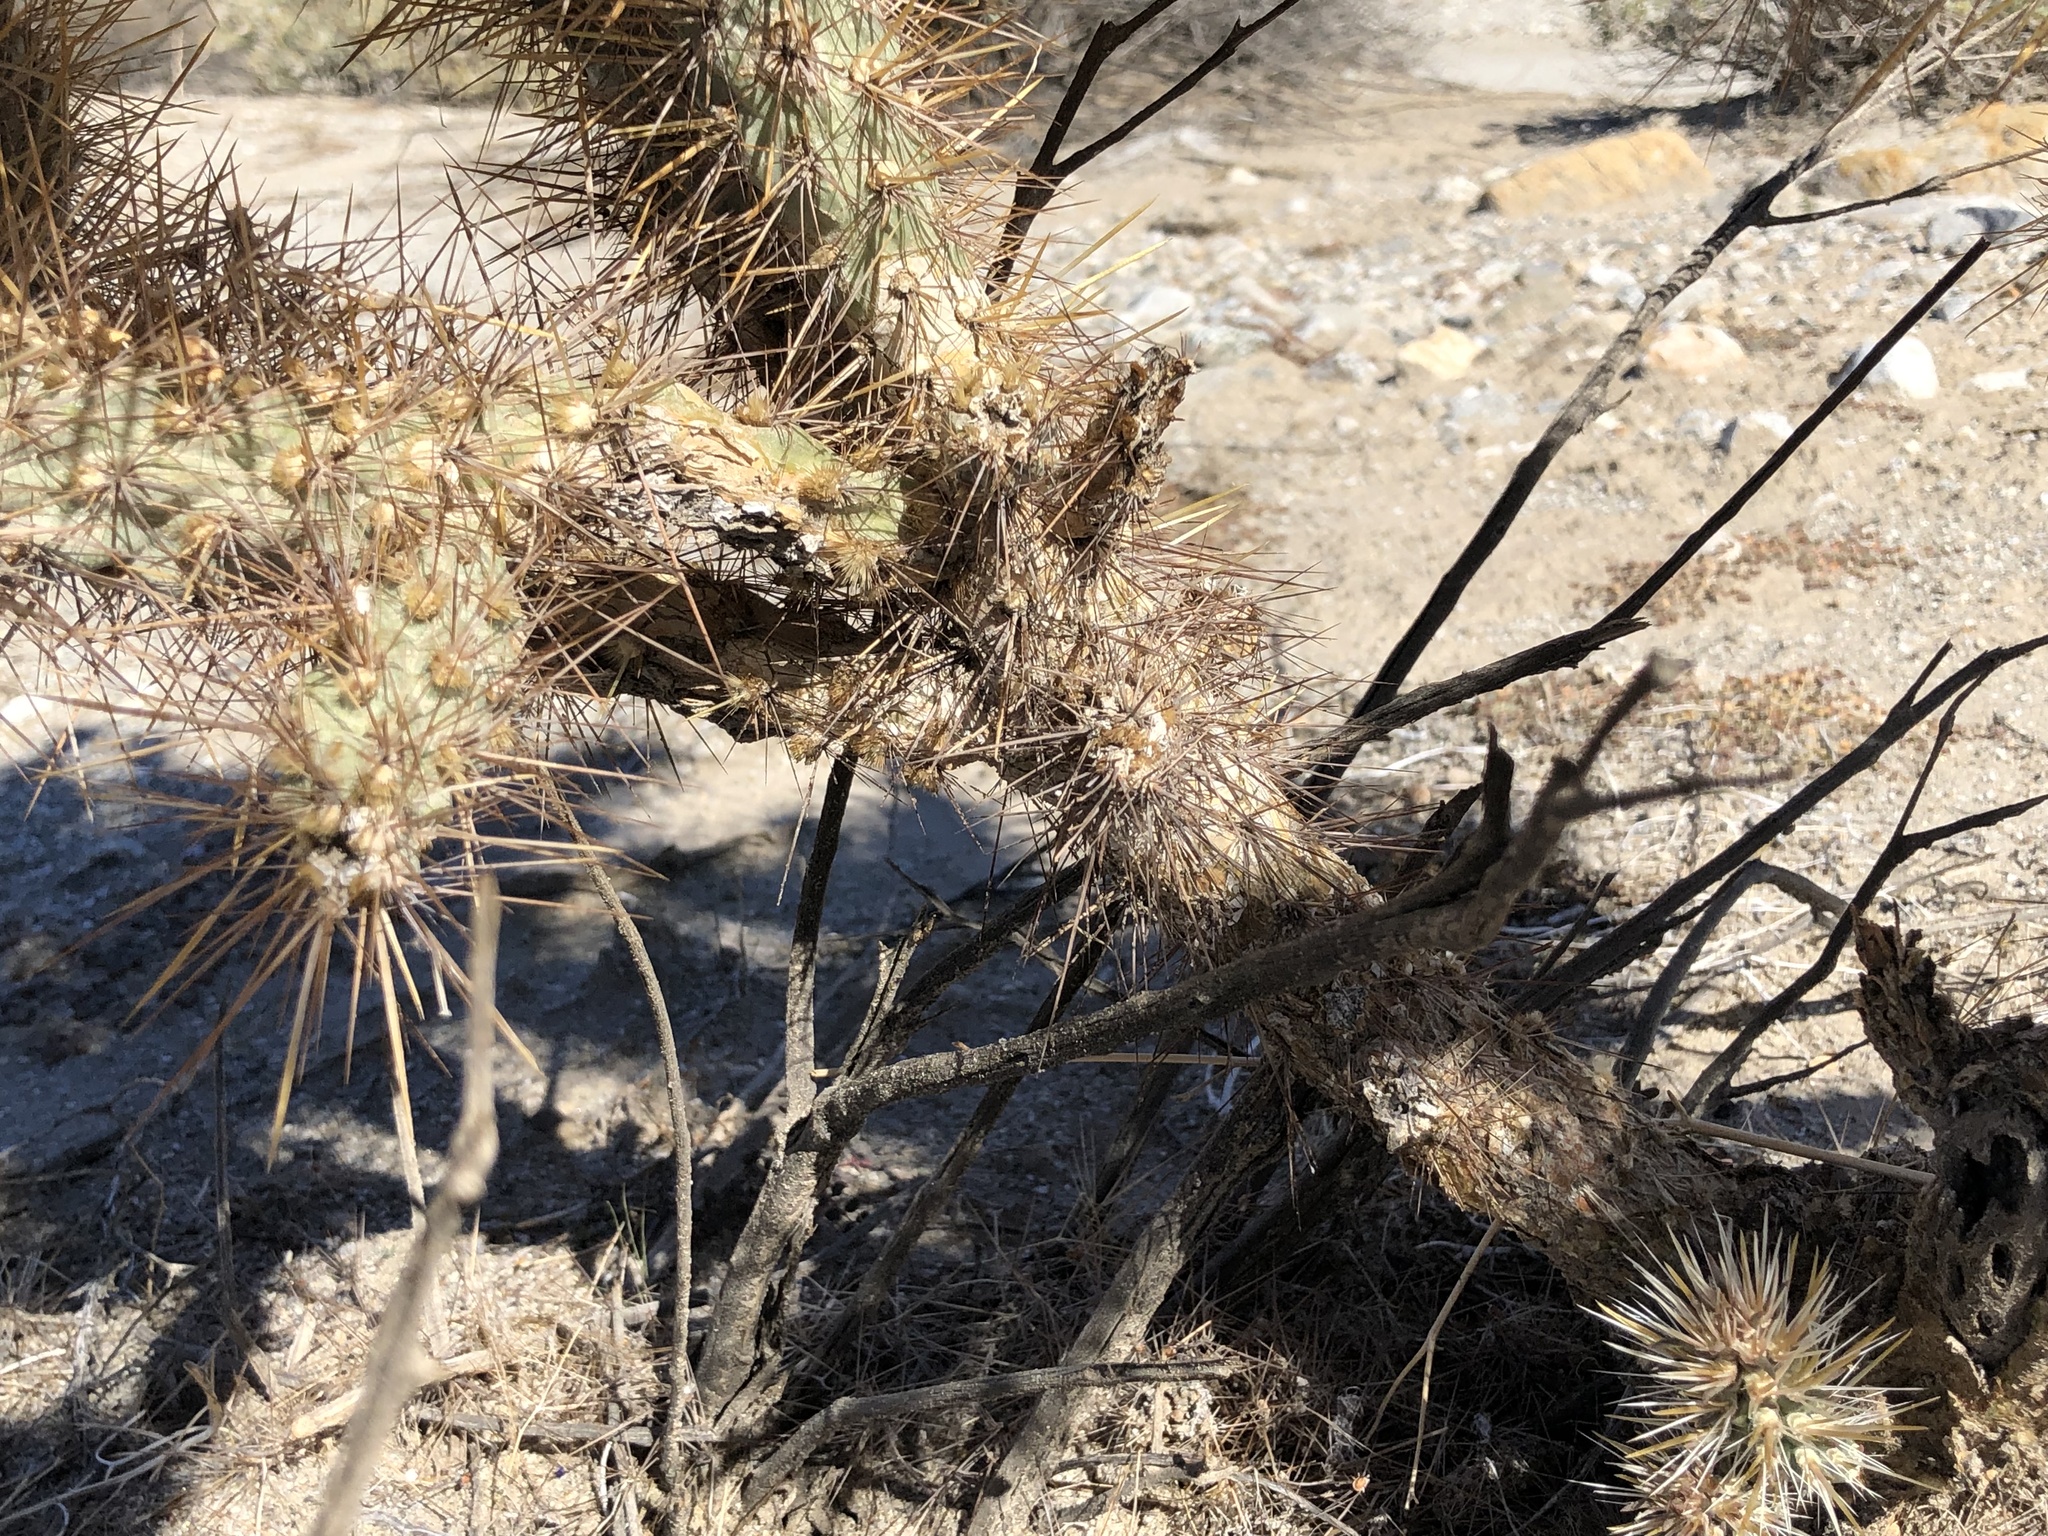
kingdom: Plantae
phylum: Tracheophyta
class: Magnoliopsida
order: Caryophyllales
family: Cactaceae
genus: Cylindropuntia
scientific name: Cylindropuntia echinocarpa
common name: Ground cholla
